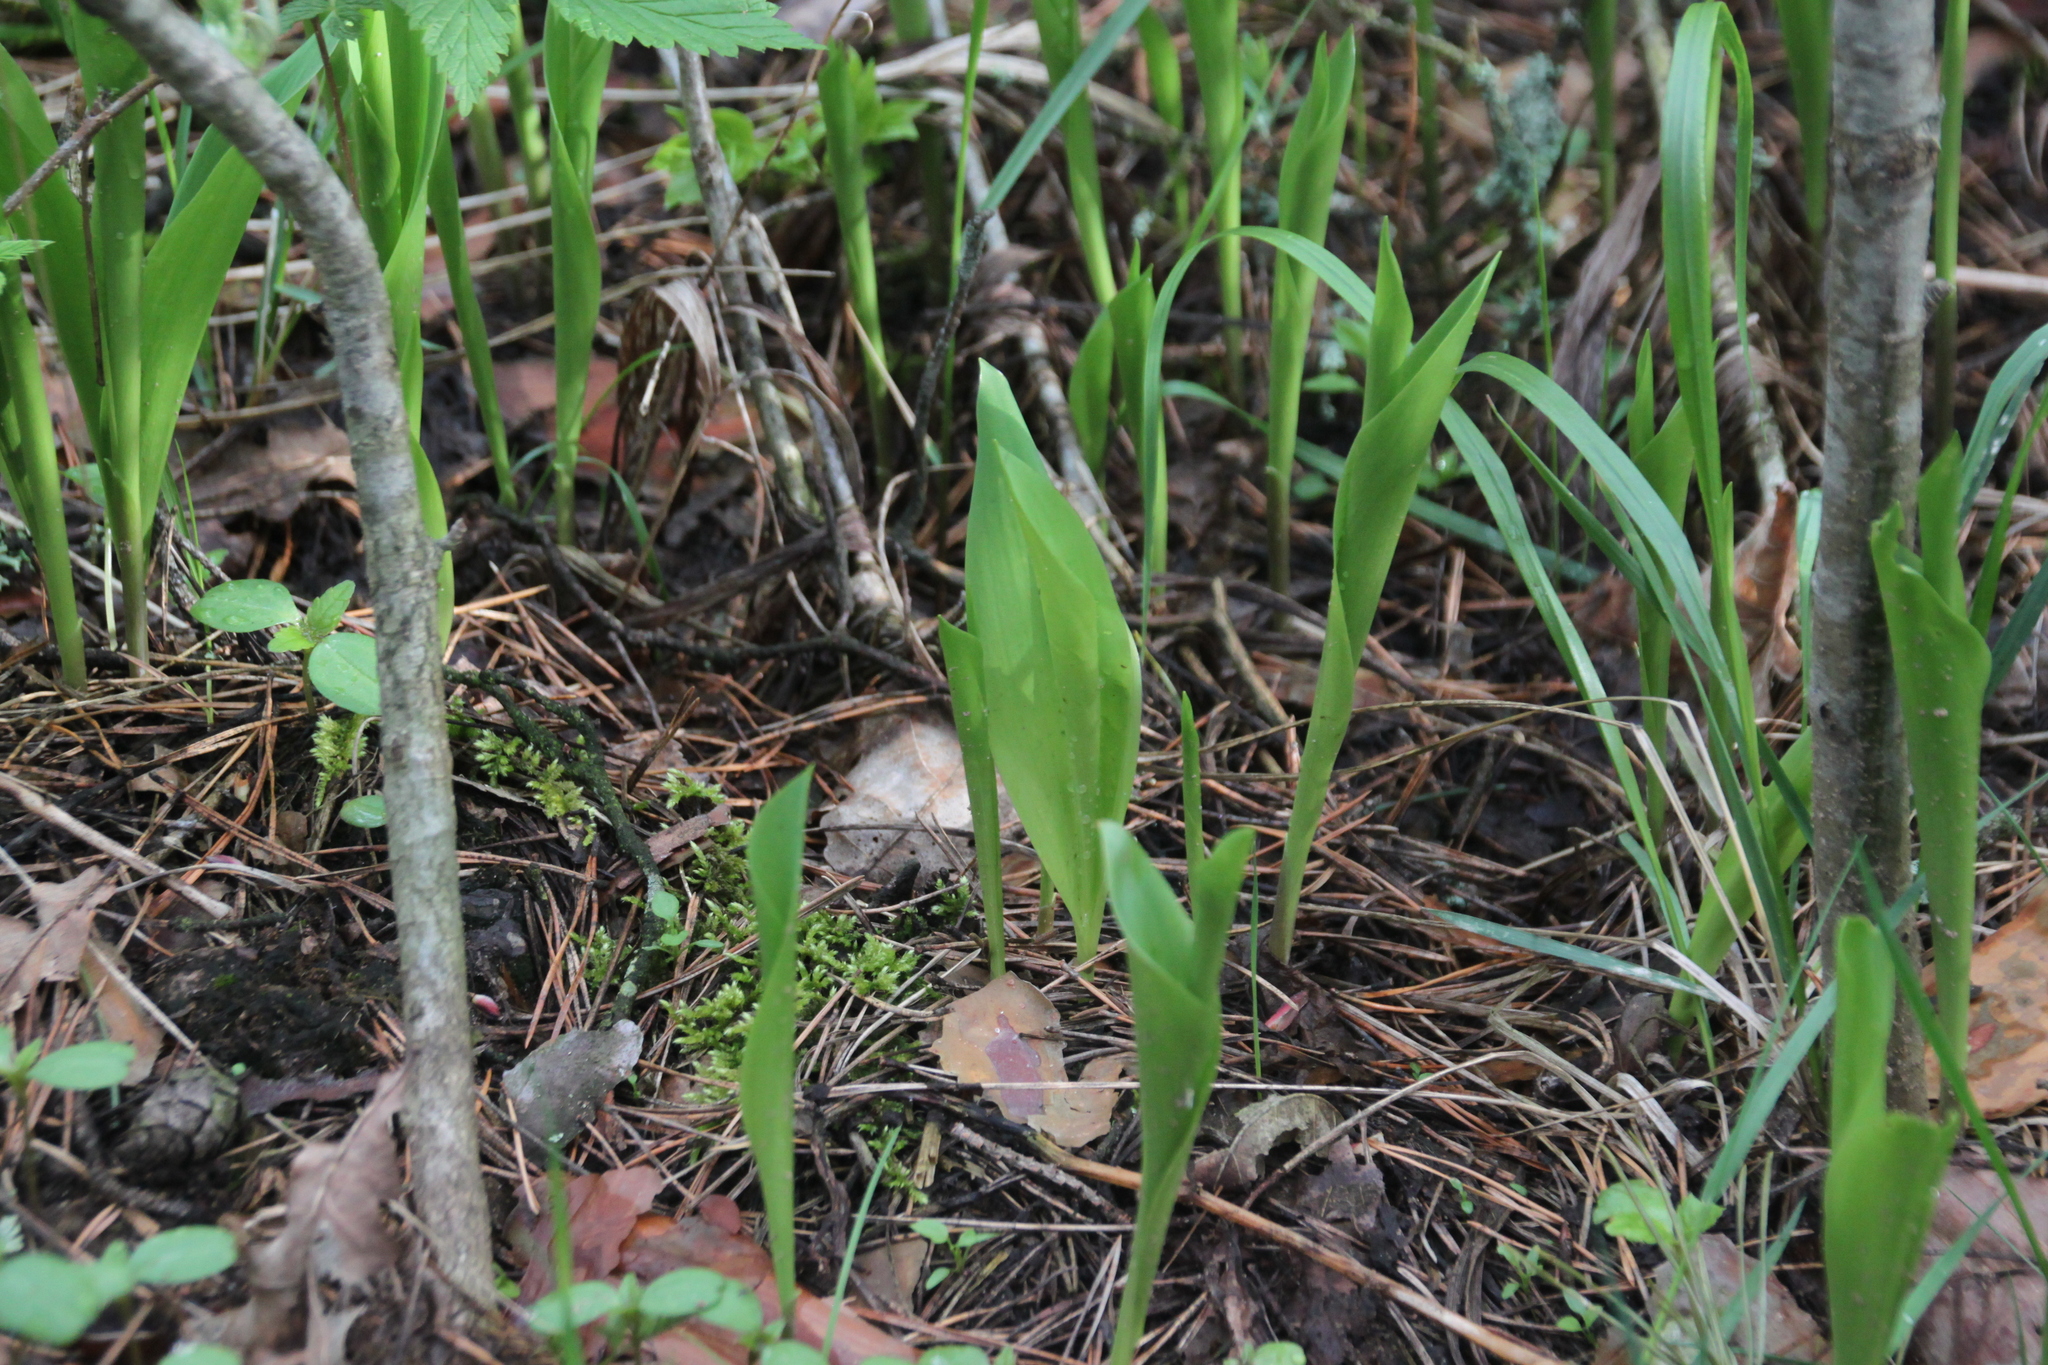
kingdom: Plantae
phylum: Tracheophyta
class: Liliopsida
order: Asparagales
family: Asparagaceae
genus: Convallaria
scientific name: Convallaria majalis
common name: Lily-of-the-valley
